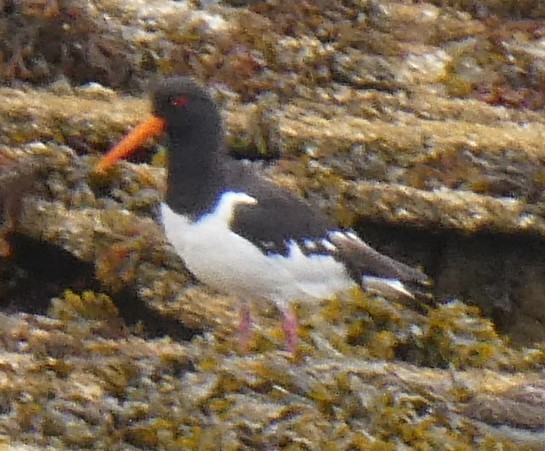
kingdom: Animalia
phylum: Chordata
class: Aves
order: Charadriiformes
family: Haematopodidae
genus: Haematopus
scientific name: Haematopus ostralegus
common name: Eurasian oystercatcher
